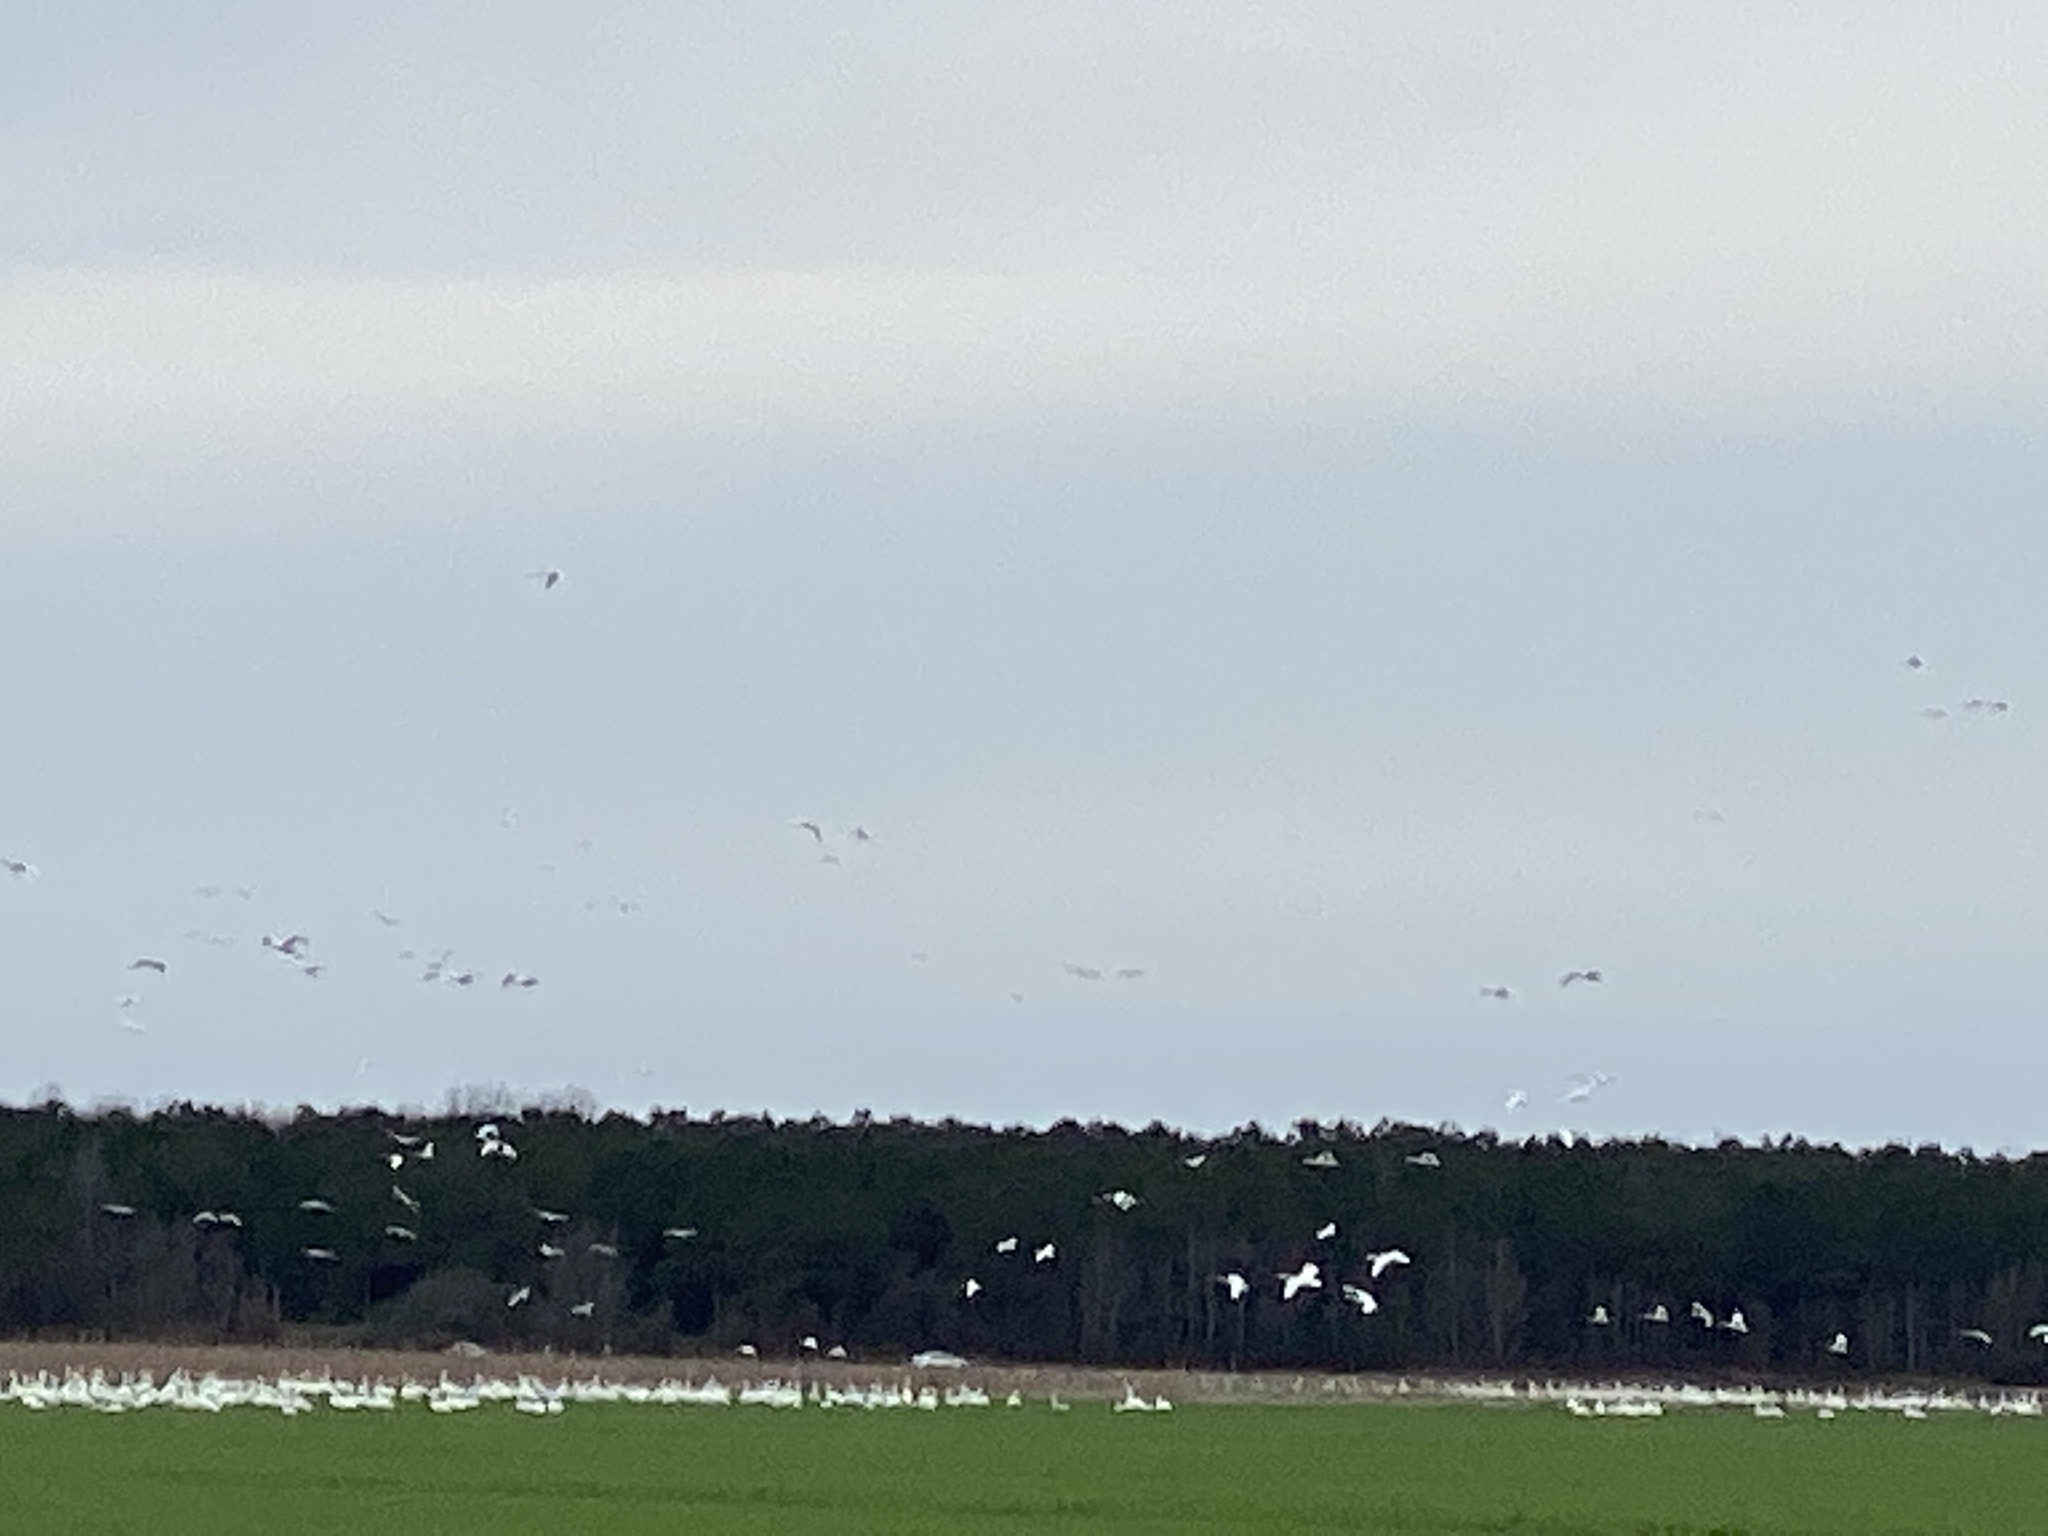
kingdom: Animalia
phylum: Chordata
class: Aves
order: Anseriformes
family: Anatidae
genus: Cygnus
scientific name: Cygnus columbianus
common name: Tundra swan
